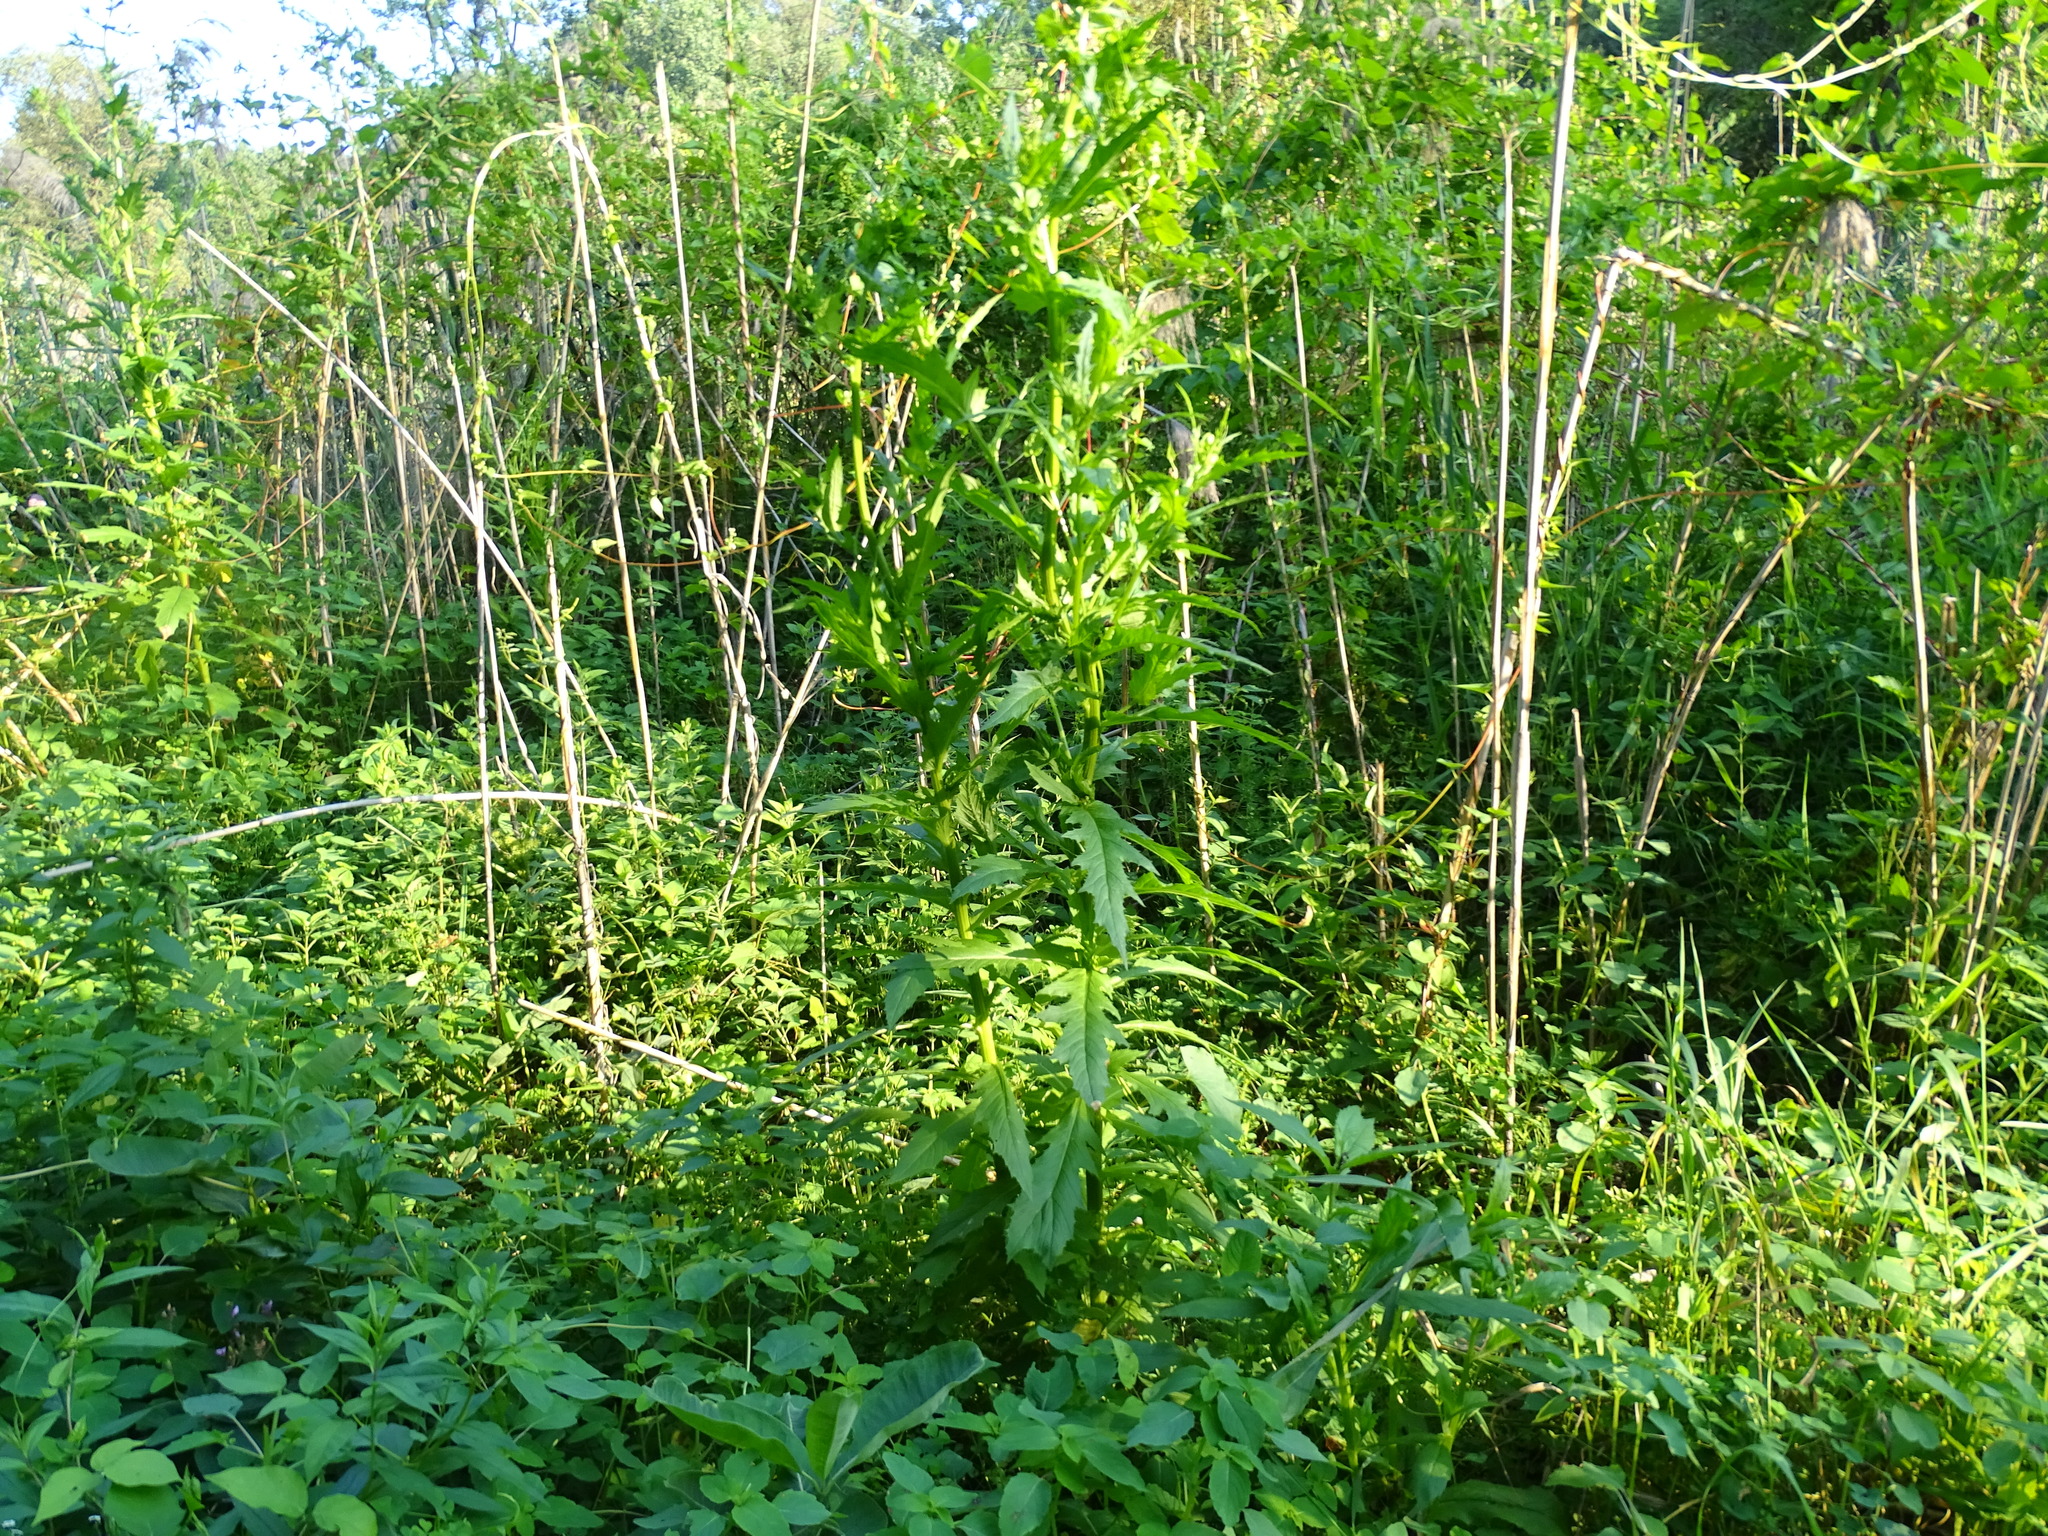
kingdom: Plantae
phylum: Tracheophyta
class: Magnoliopsida
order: Asterales
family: Asteraceae
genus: Erechtites
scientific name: Erechtites hieraciifolius
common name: American burnweed
